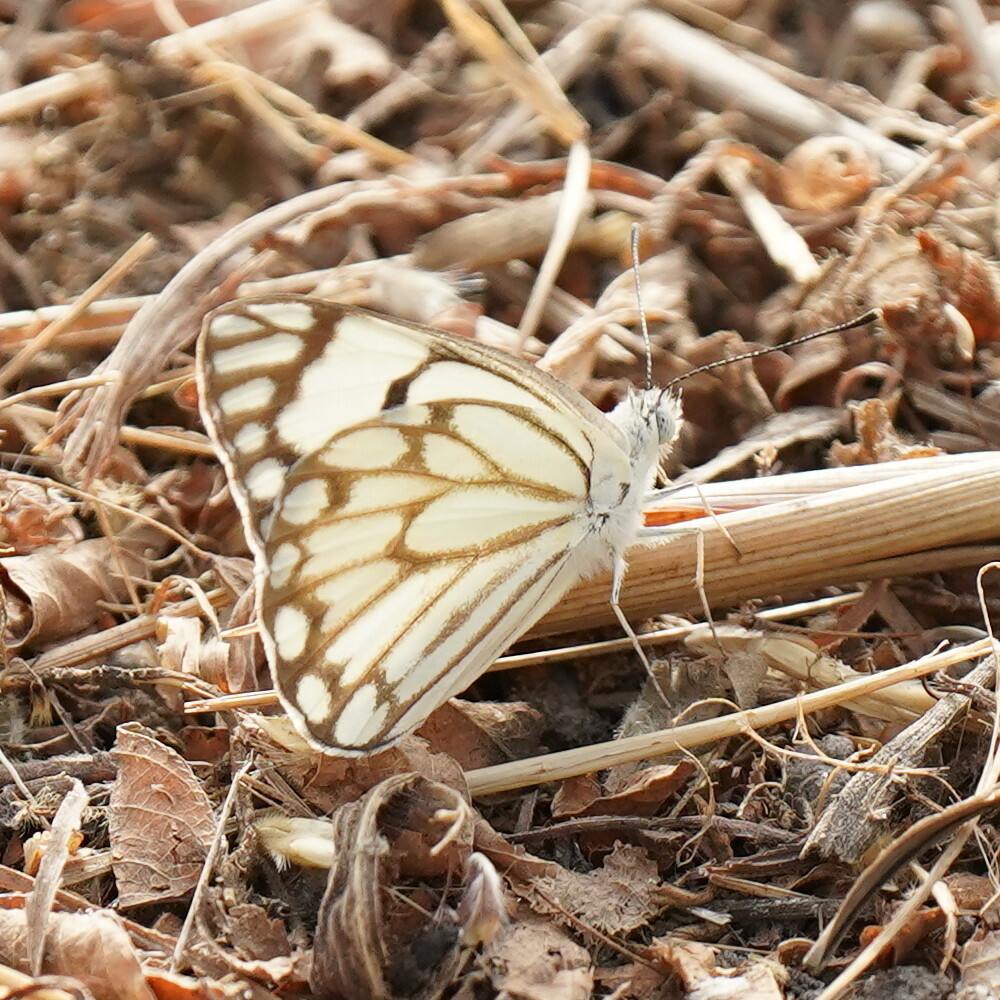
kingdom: Animalia
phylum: Arthropoda
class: Insecta
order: Lepidoptera
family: Pieridae
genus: Belenois
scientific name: Belenois aurota
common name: Brown-veined white
